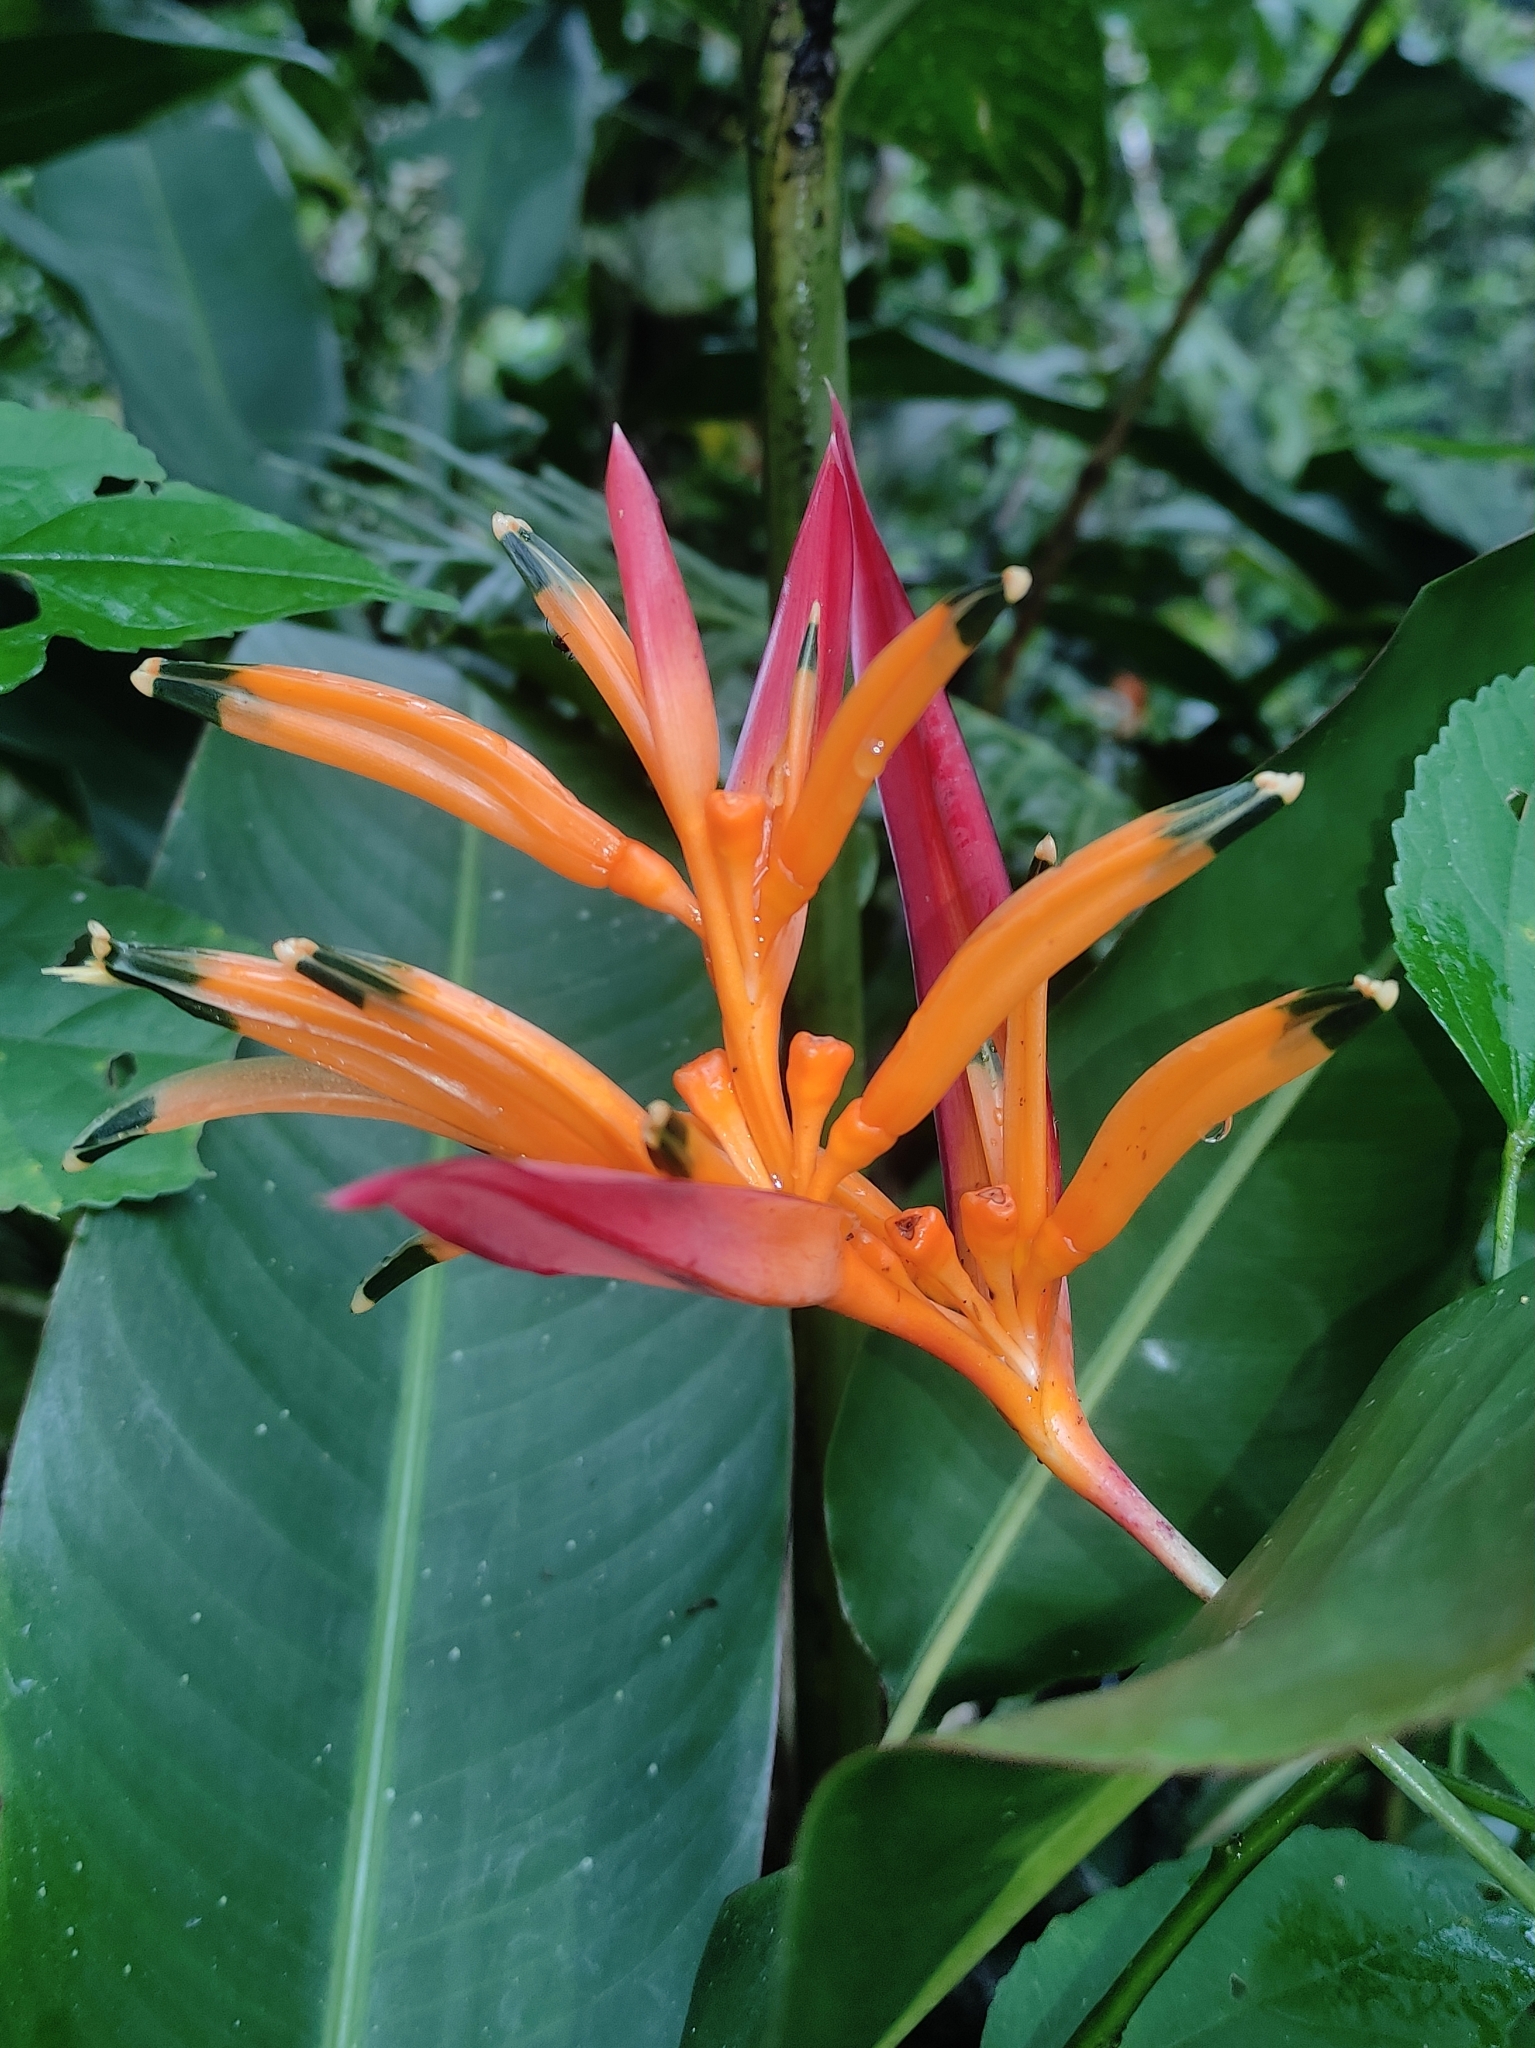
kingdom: Plantae
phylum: Tracheophyta
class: Liliopsida
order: Zingiberales
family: Heliconiaceae
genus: Heliconia
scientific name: Heliconia psittacorum
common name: Parrot's-flower
